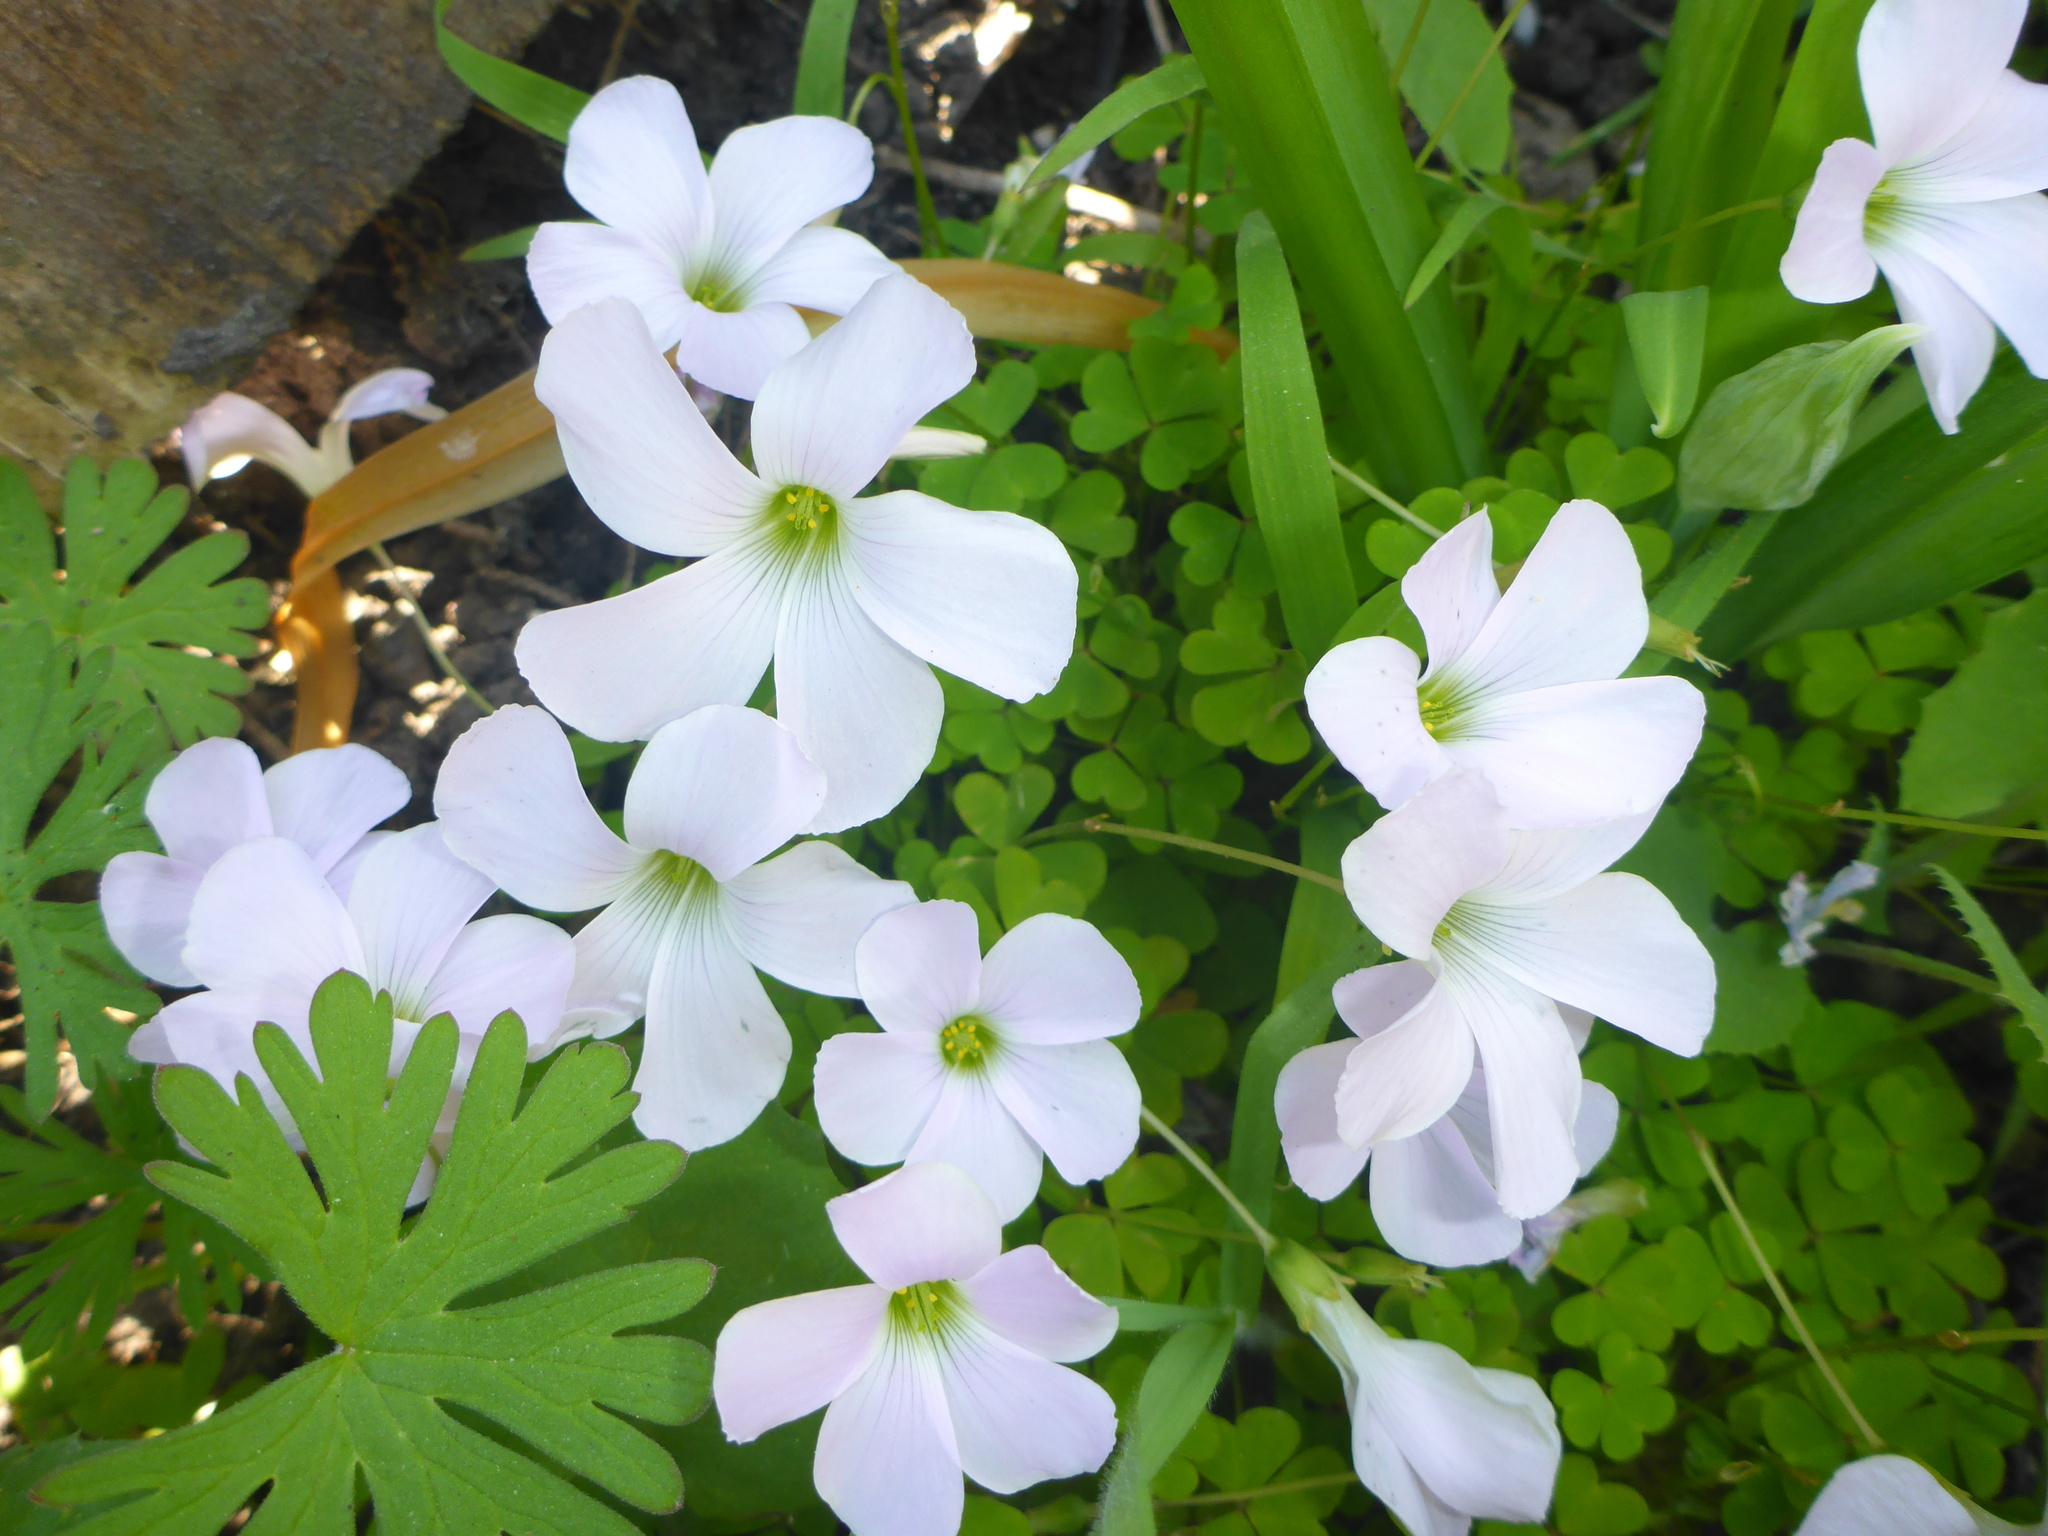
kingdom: Plantae
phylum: Tracheophyta
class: Magnoliopsida
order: Oxalidales
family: Oxalidaceae
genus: Oxalis
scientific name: Oxalis incarnata
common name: Pale pink-sorrel
